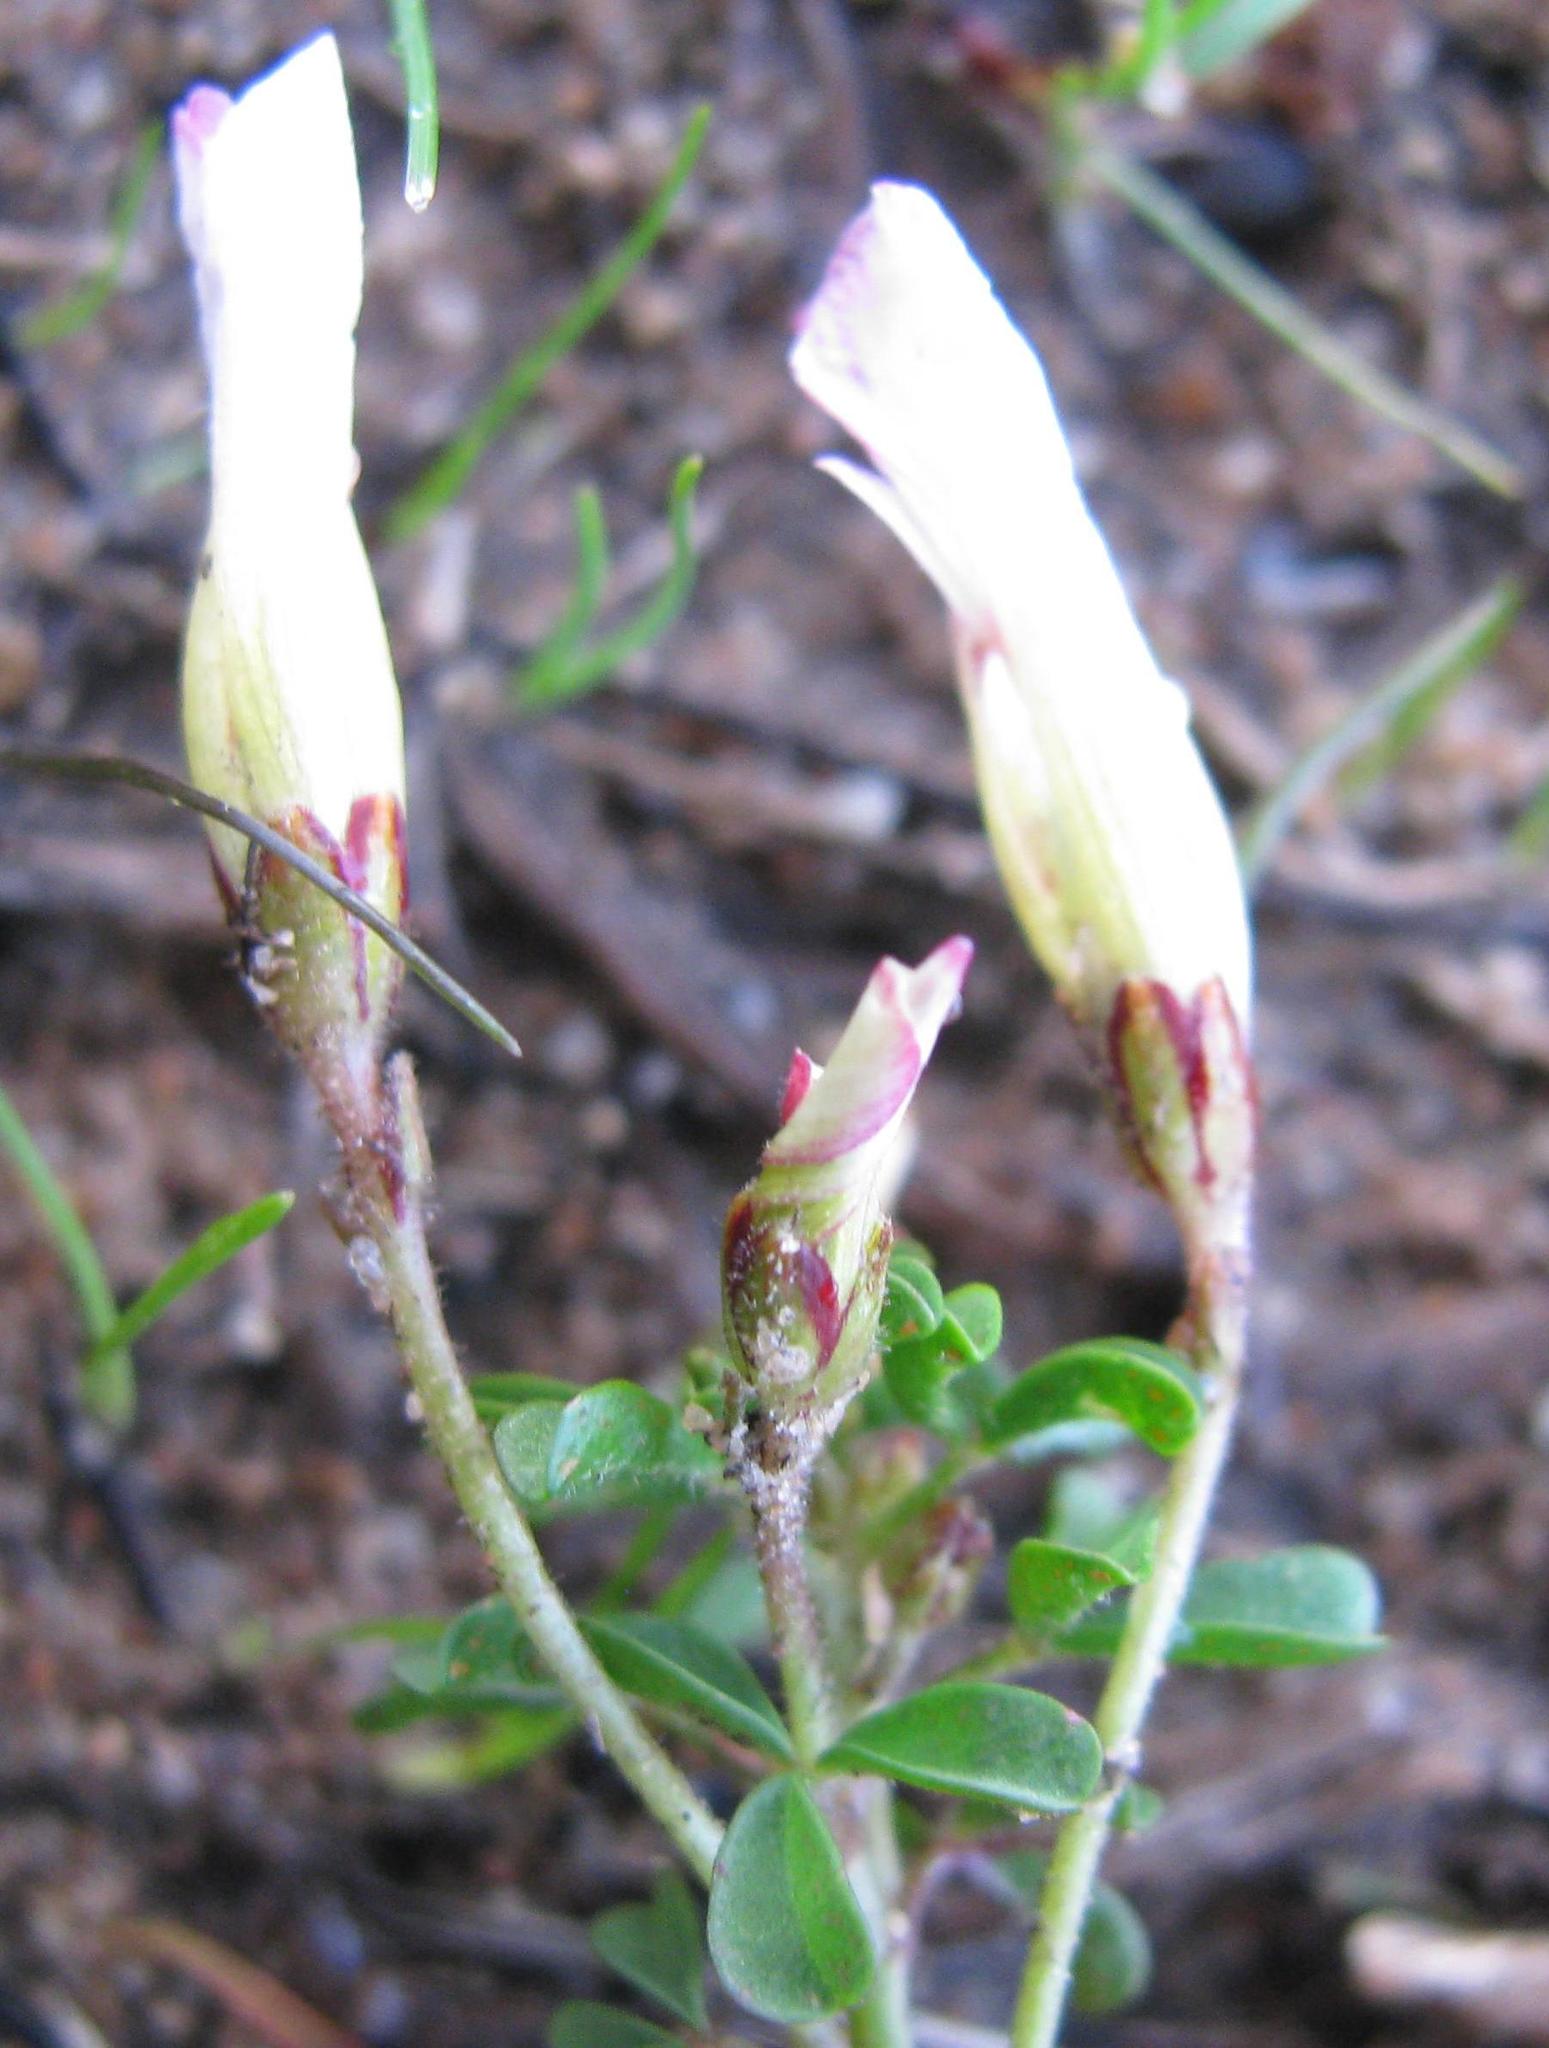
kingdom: Plantae
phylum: Tracheophyta
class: Magnoliopsida
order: Oxalidales
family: Oxalidaceae
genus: Oxalis
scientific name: Oxalis multicaulis
